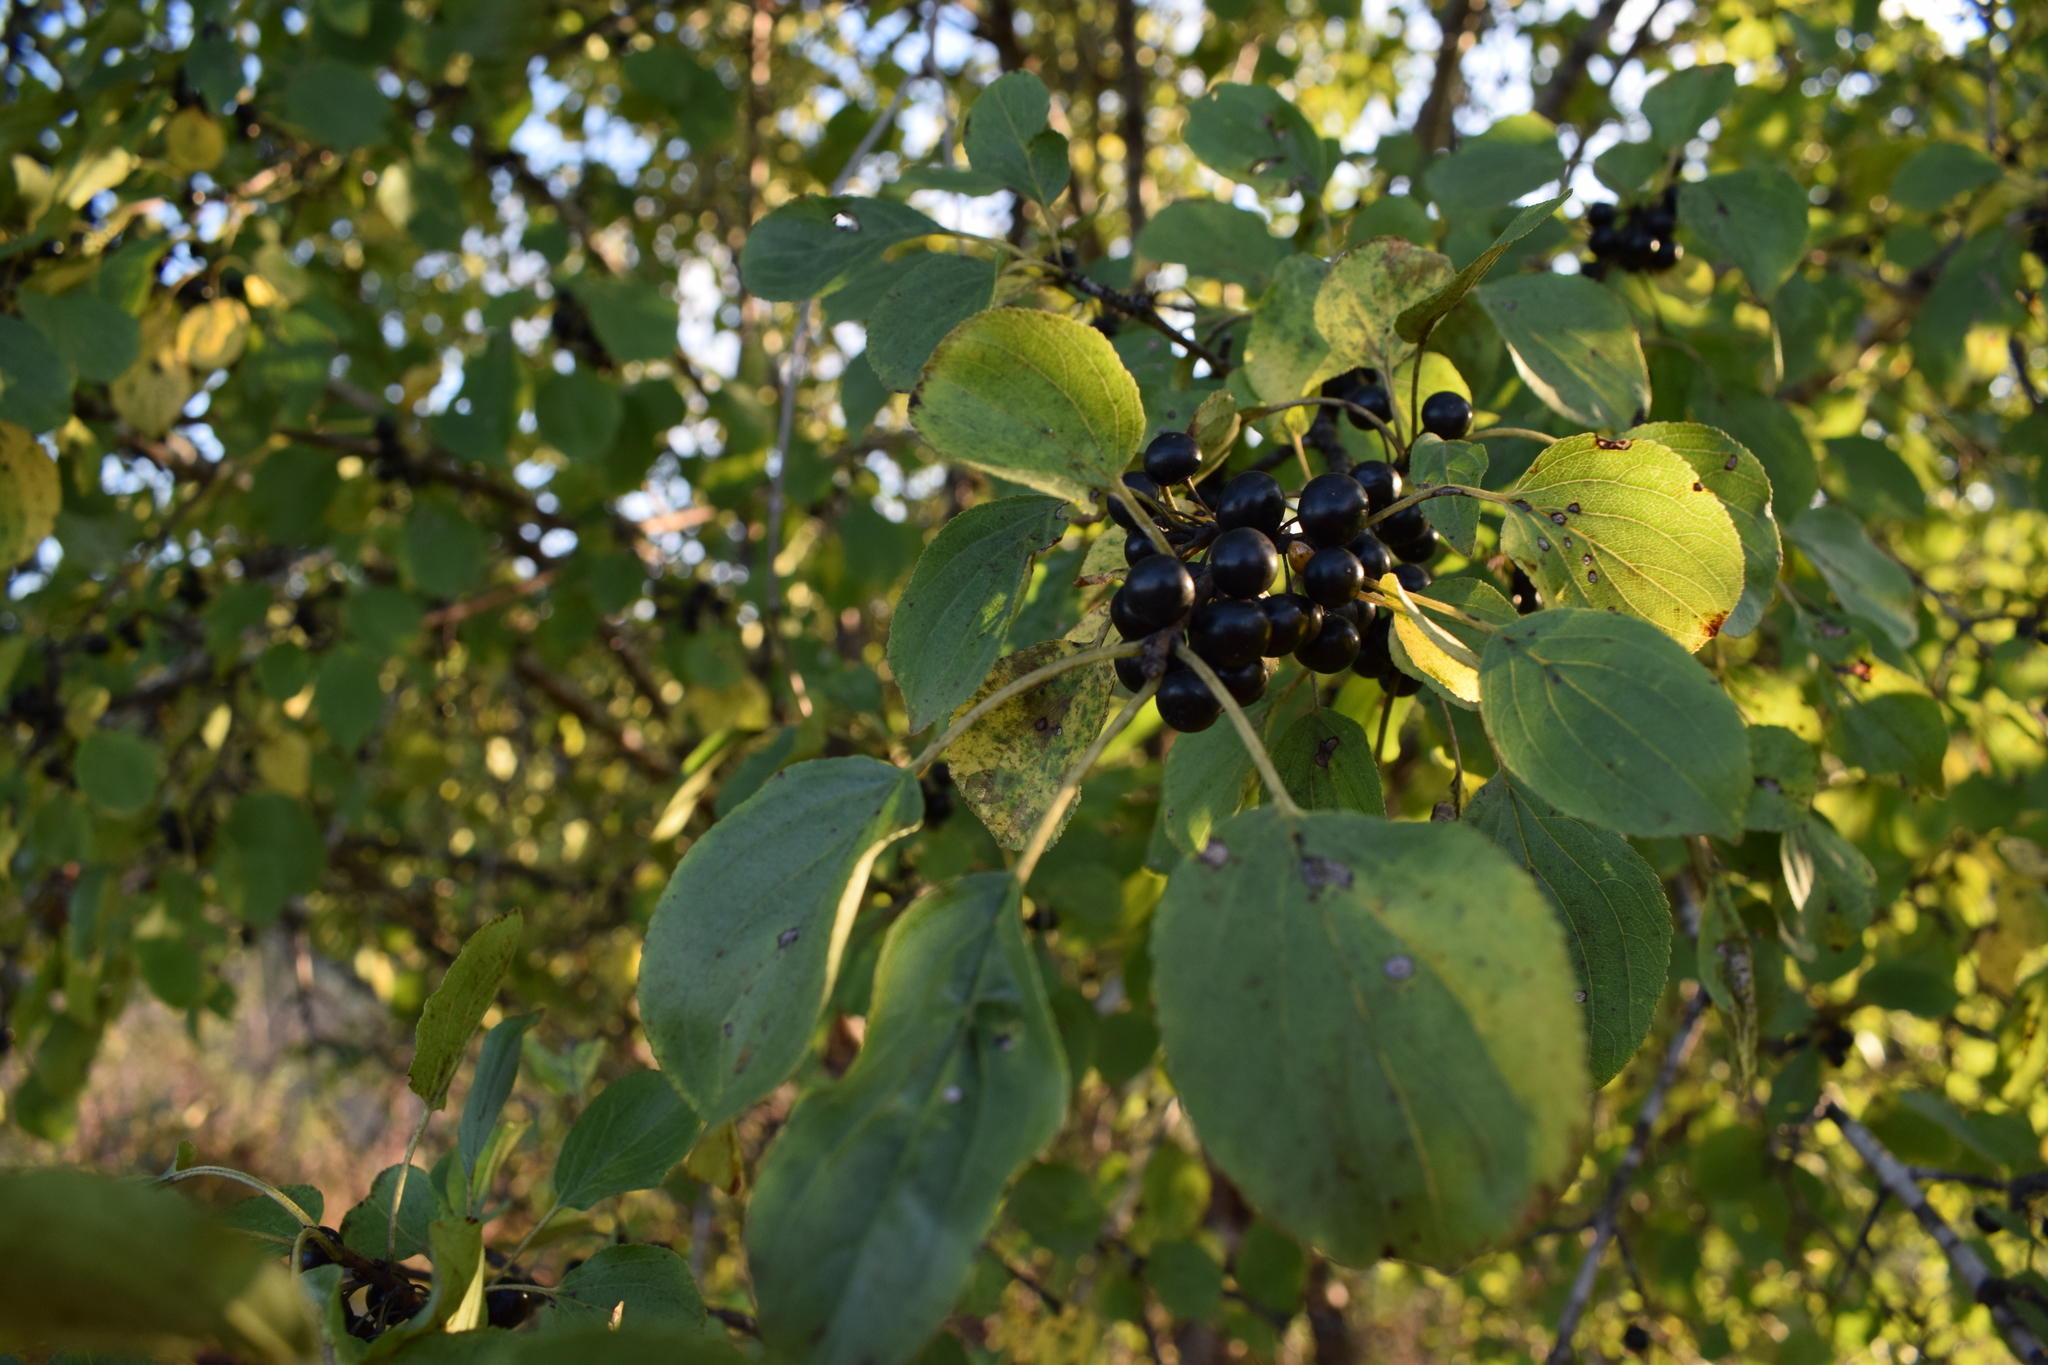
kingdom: Plantae
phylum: Tracheophyta
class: Magnoliopsida
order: Rosales
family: Rhamnaceae
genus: Rhamnus
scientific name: Rhamnus cathartica
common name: Common buckthorn
